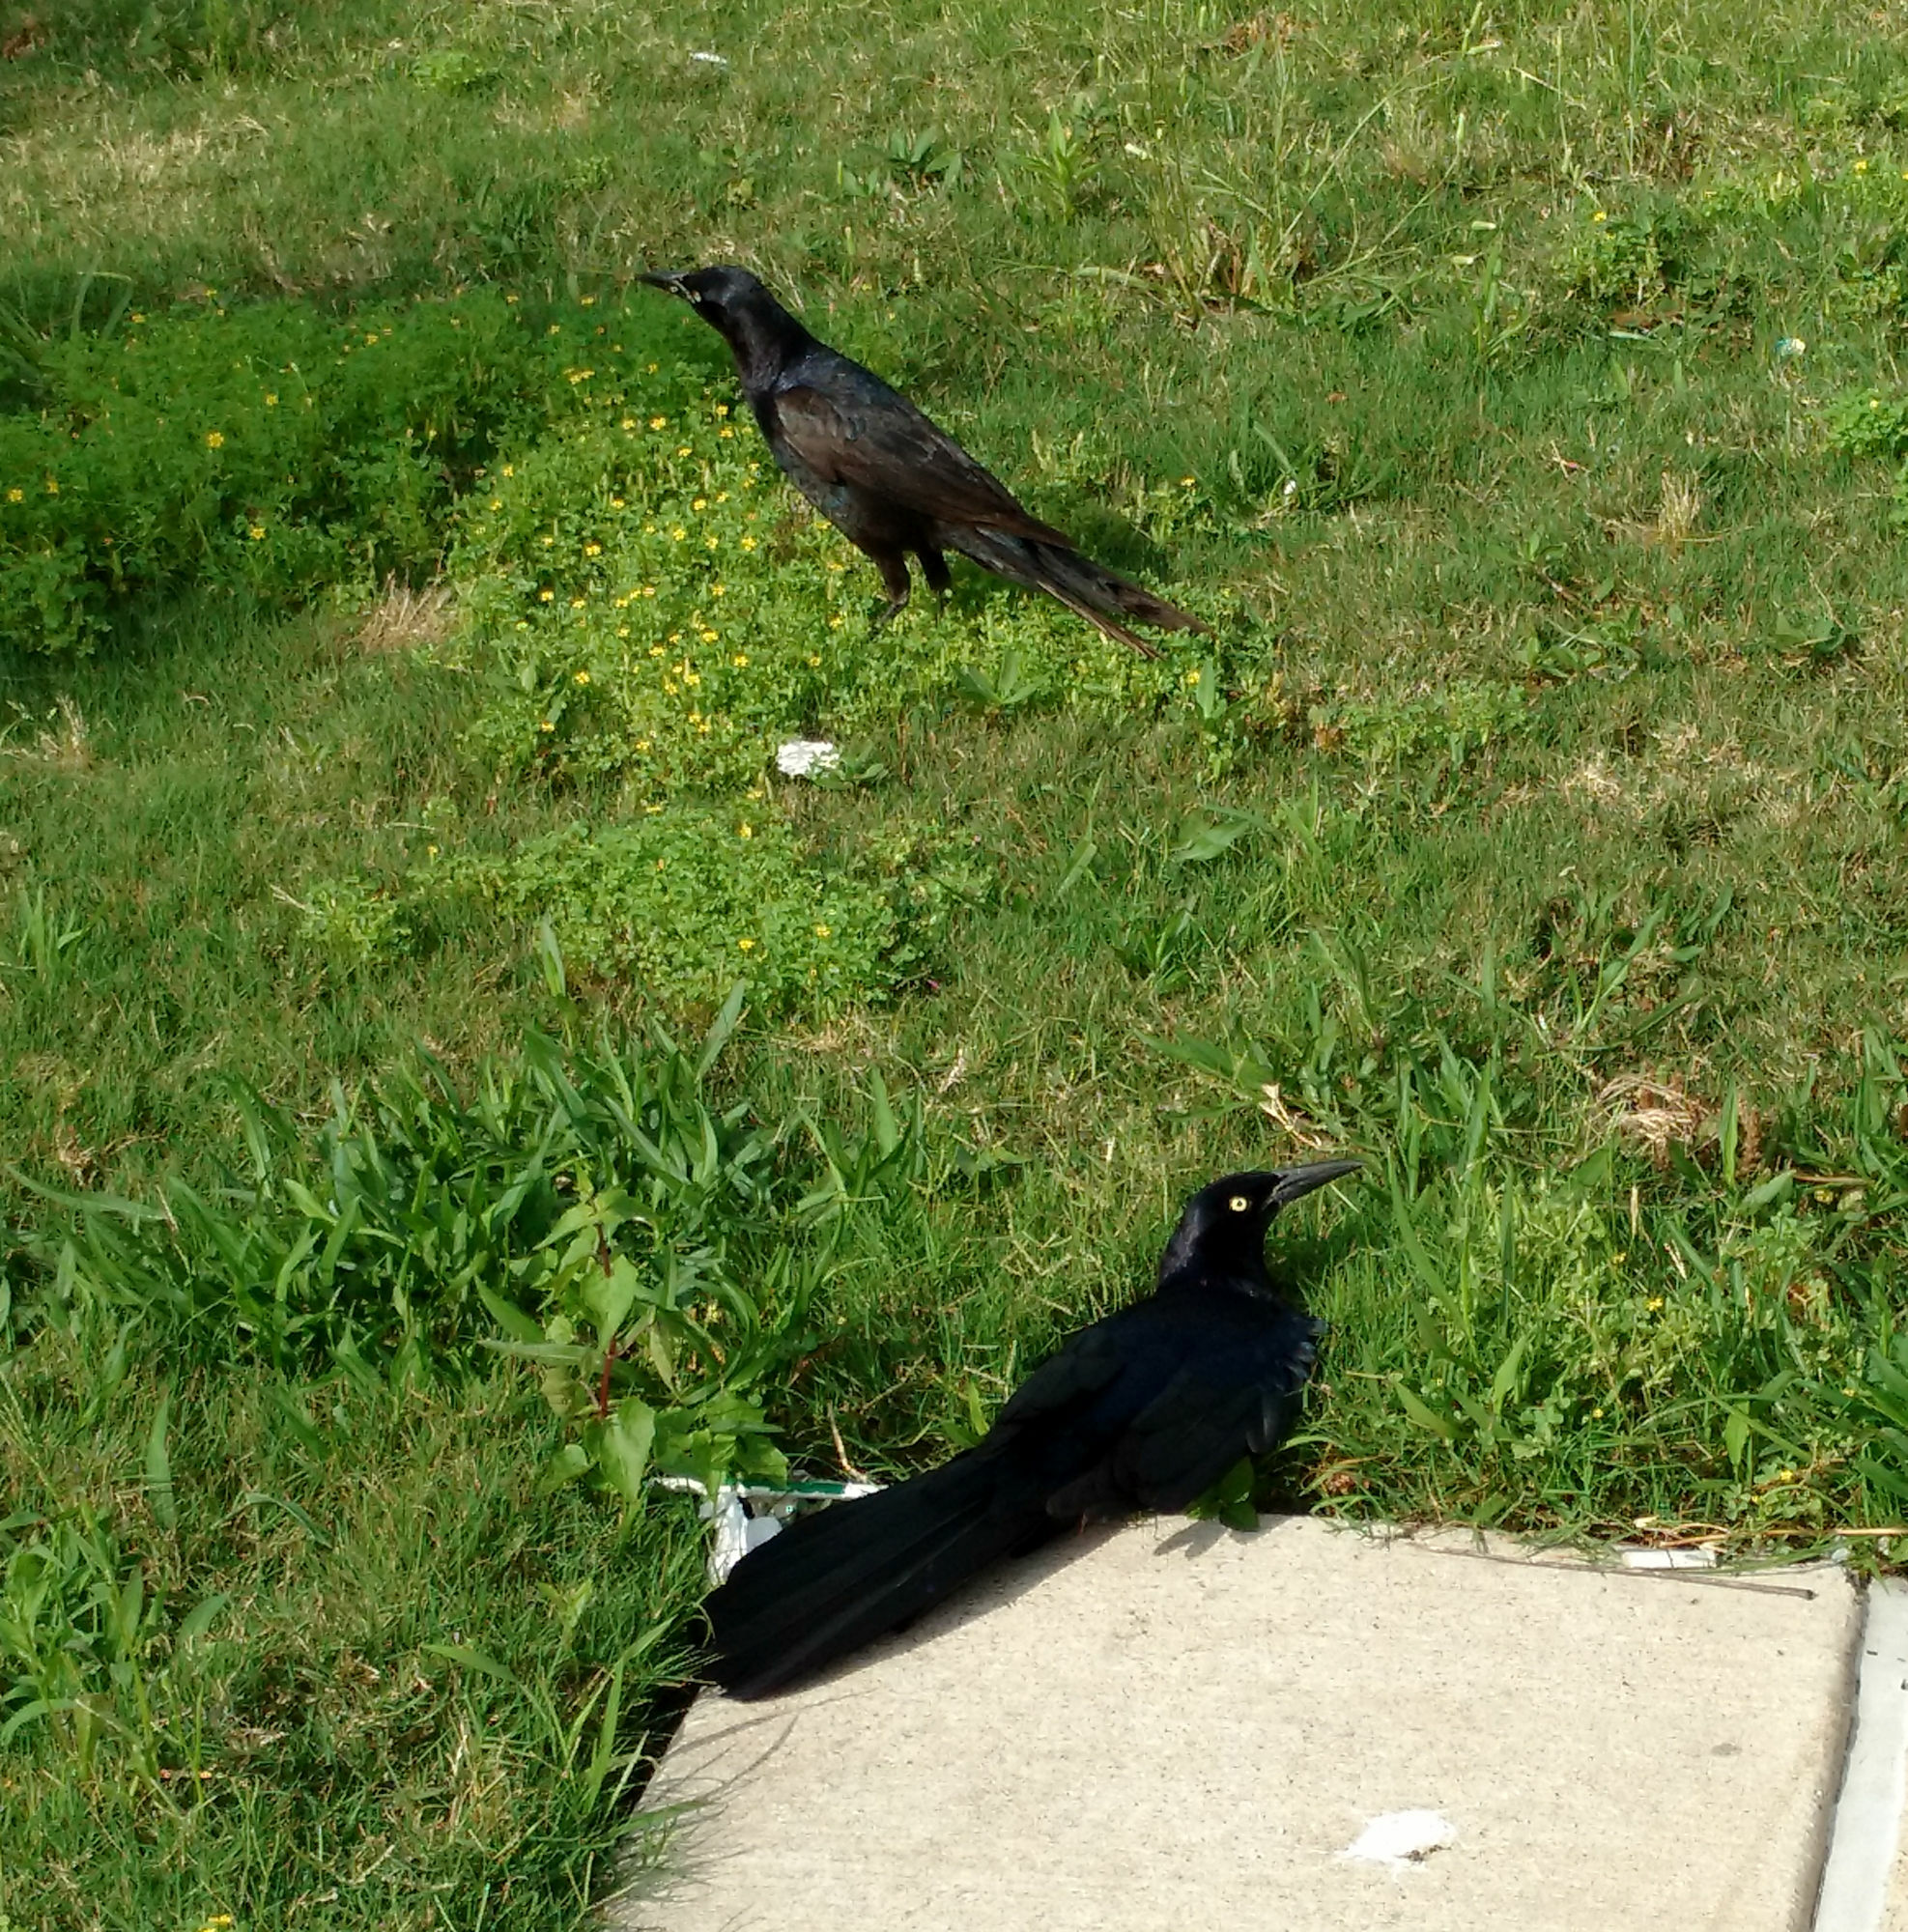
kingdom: Animalia
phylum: Chordata
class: Aves
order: Passeriformes
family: Icteridae
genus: Quiscalus
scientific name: Quiscalus mexicanus
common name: Great-tailed grackle
